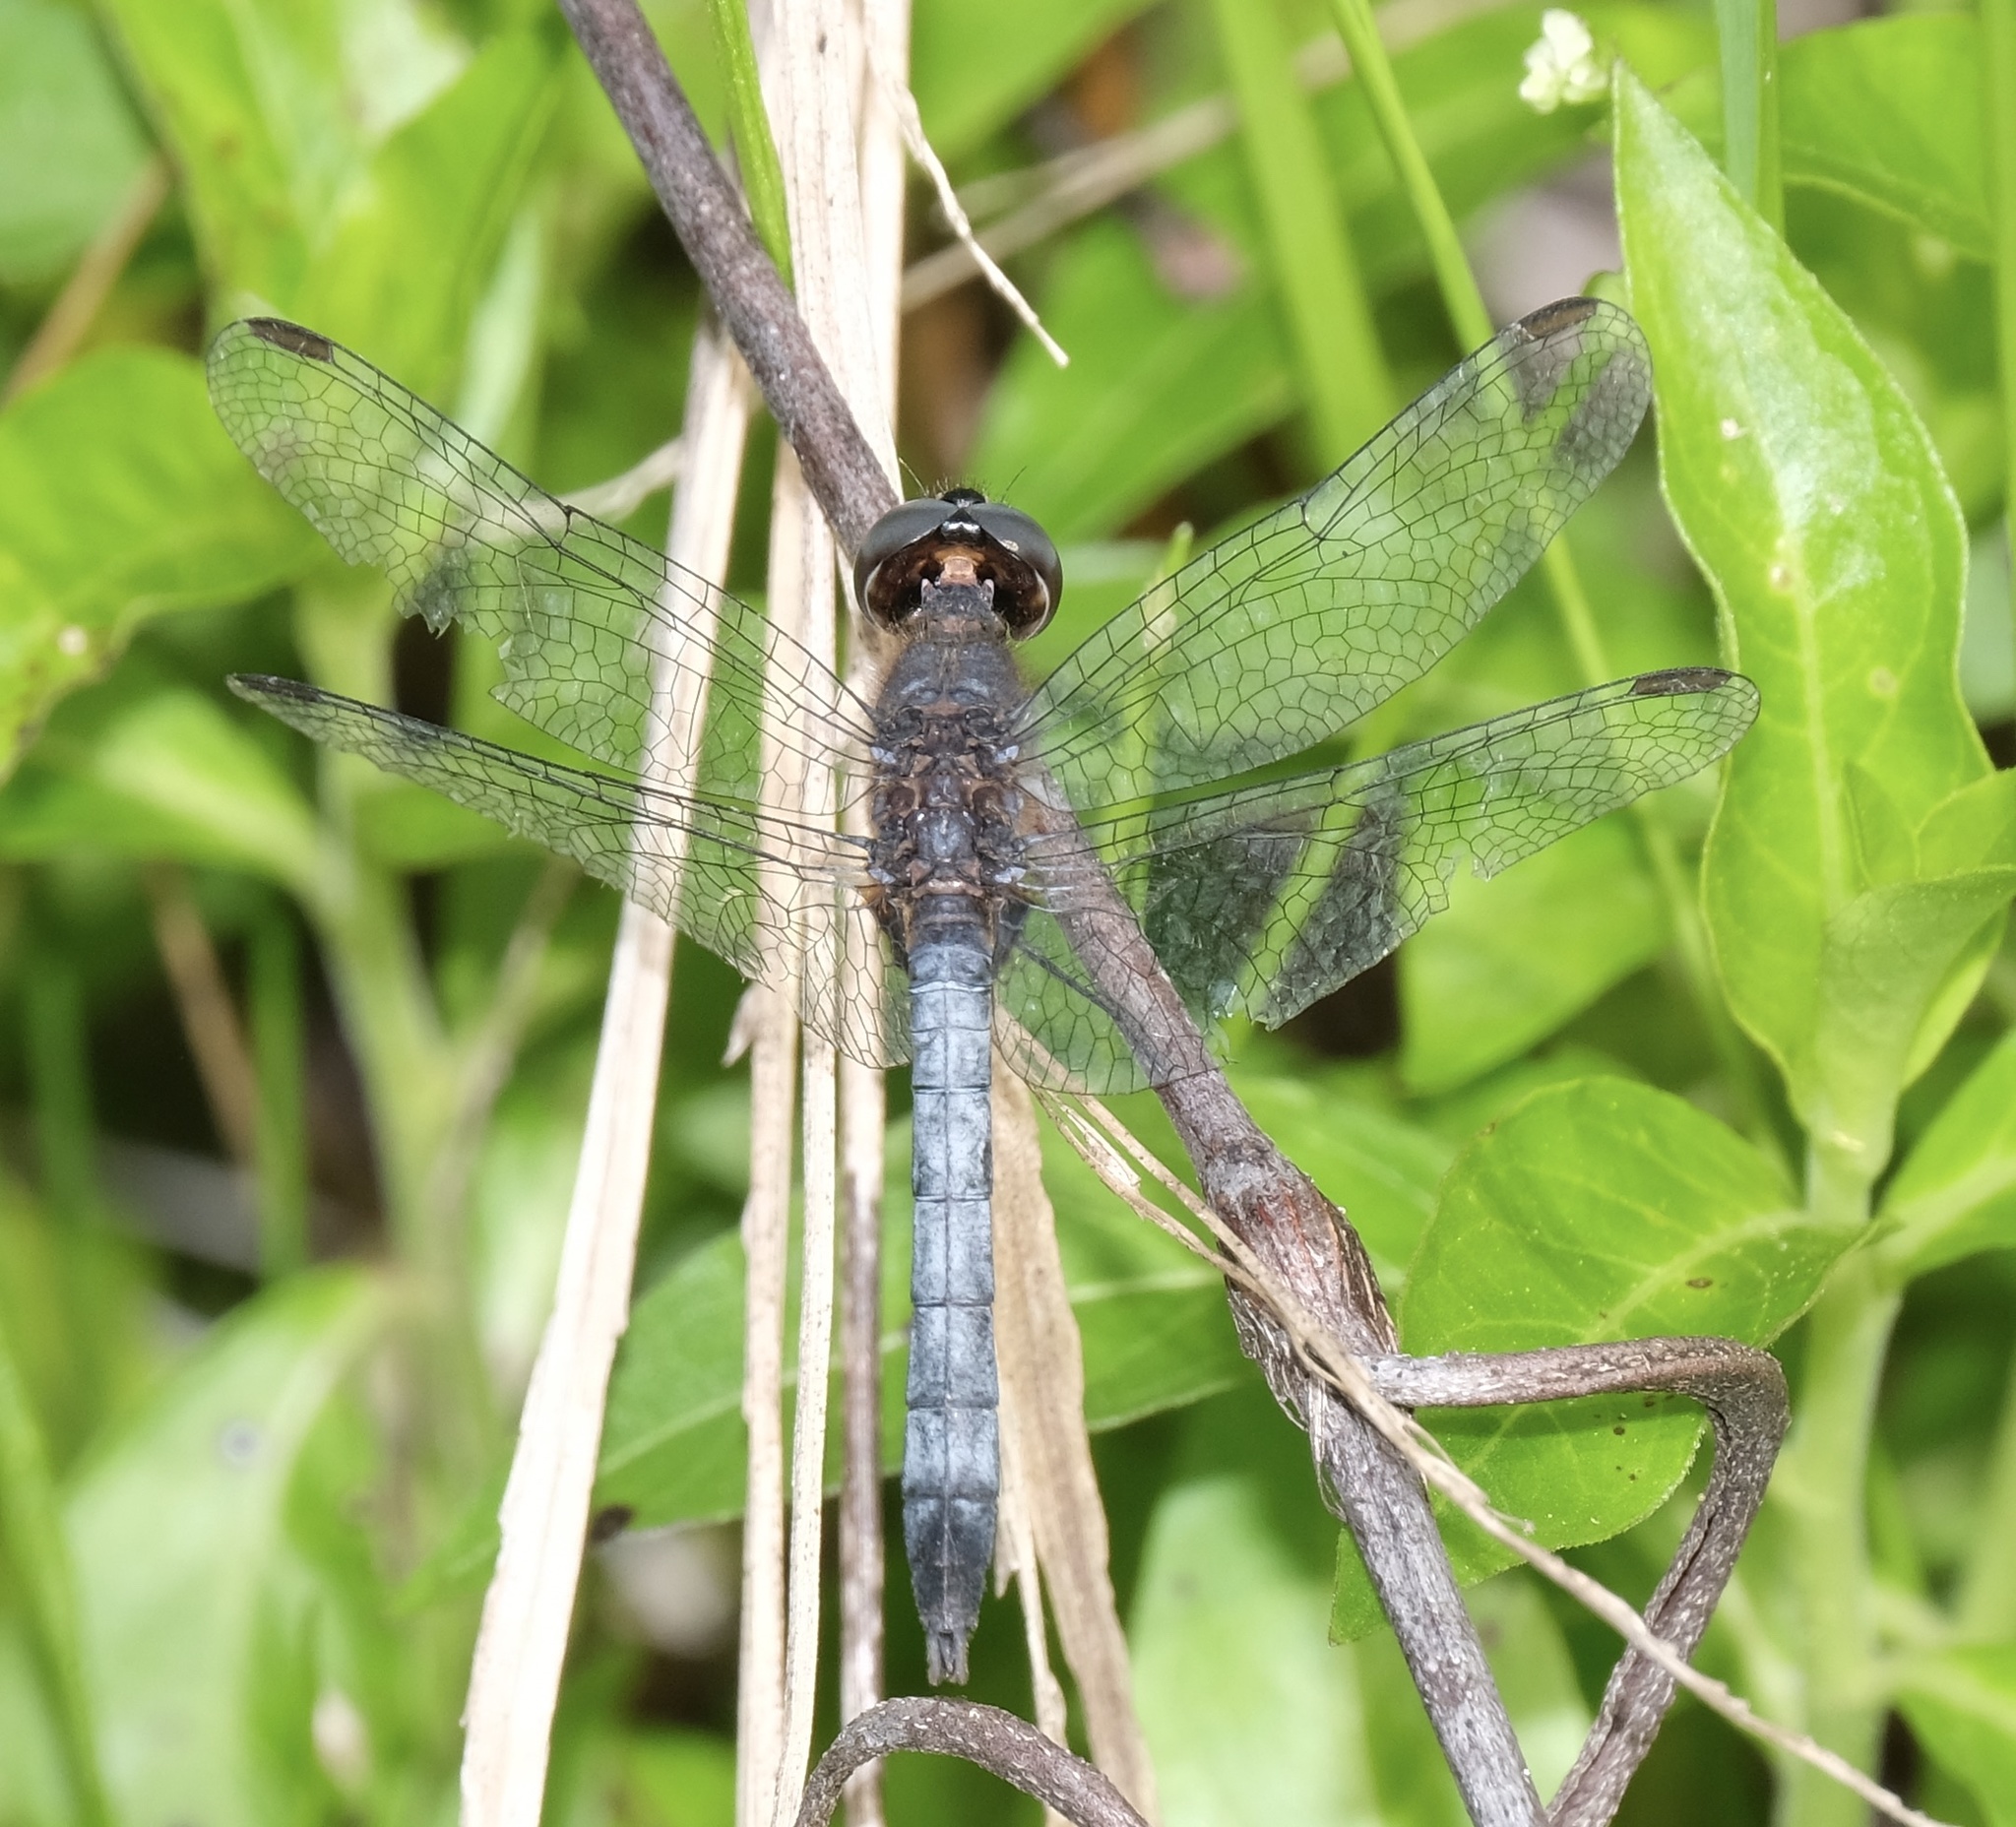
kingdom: Animalia
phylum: Arthropoda
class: Insecta
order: Odonata
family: Libellulidae
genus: Erythrodiplax
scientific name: Erythrodiplax minuscula
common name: Little blue dragonlet
